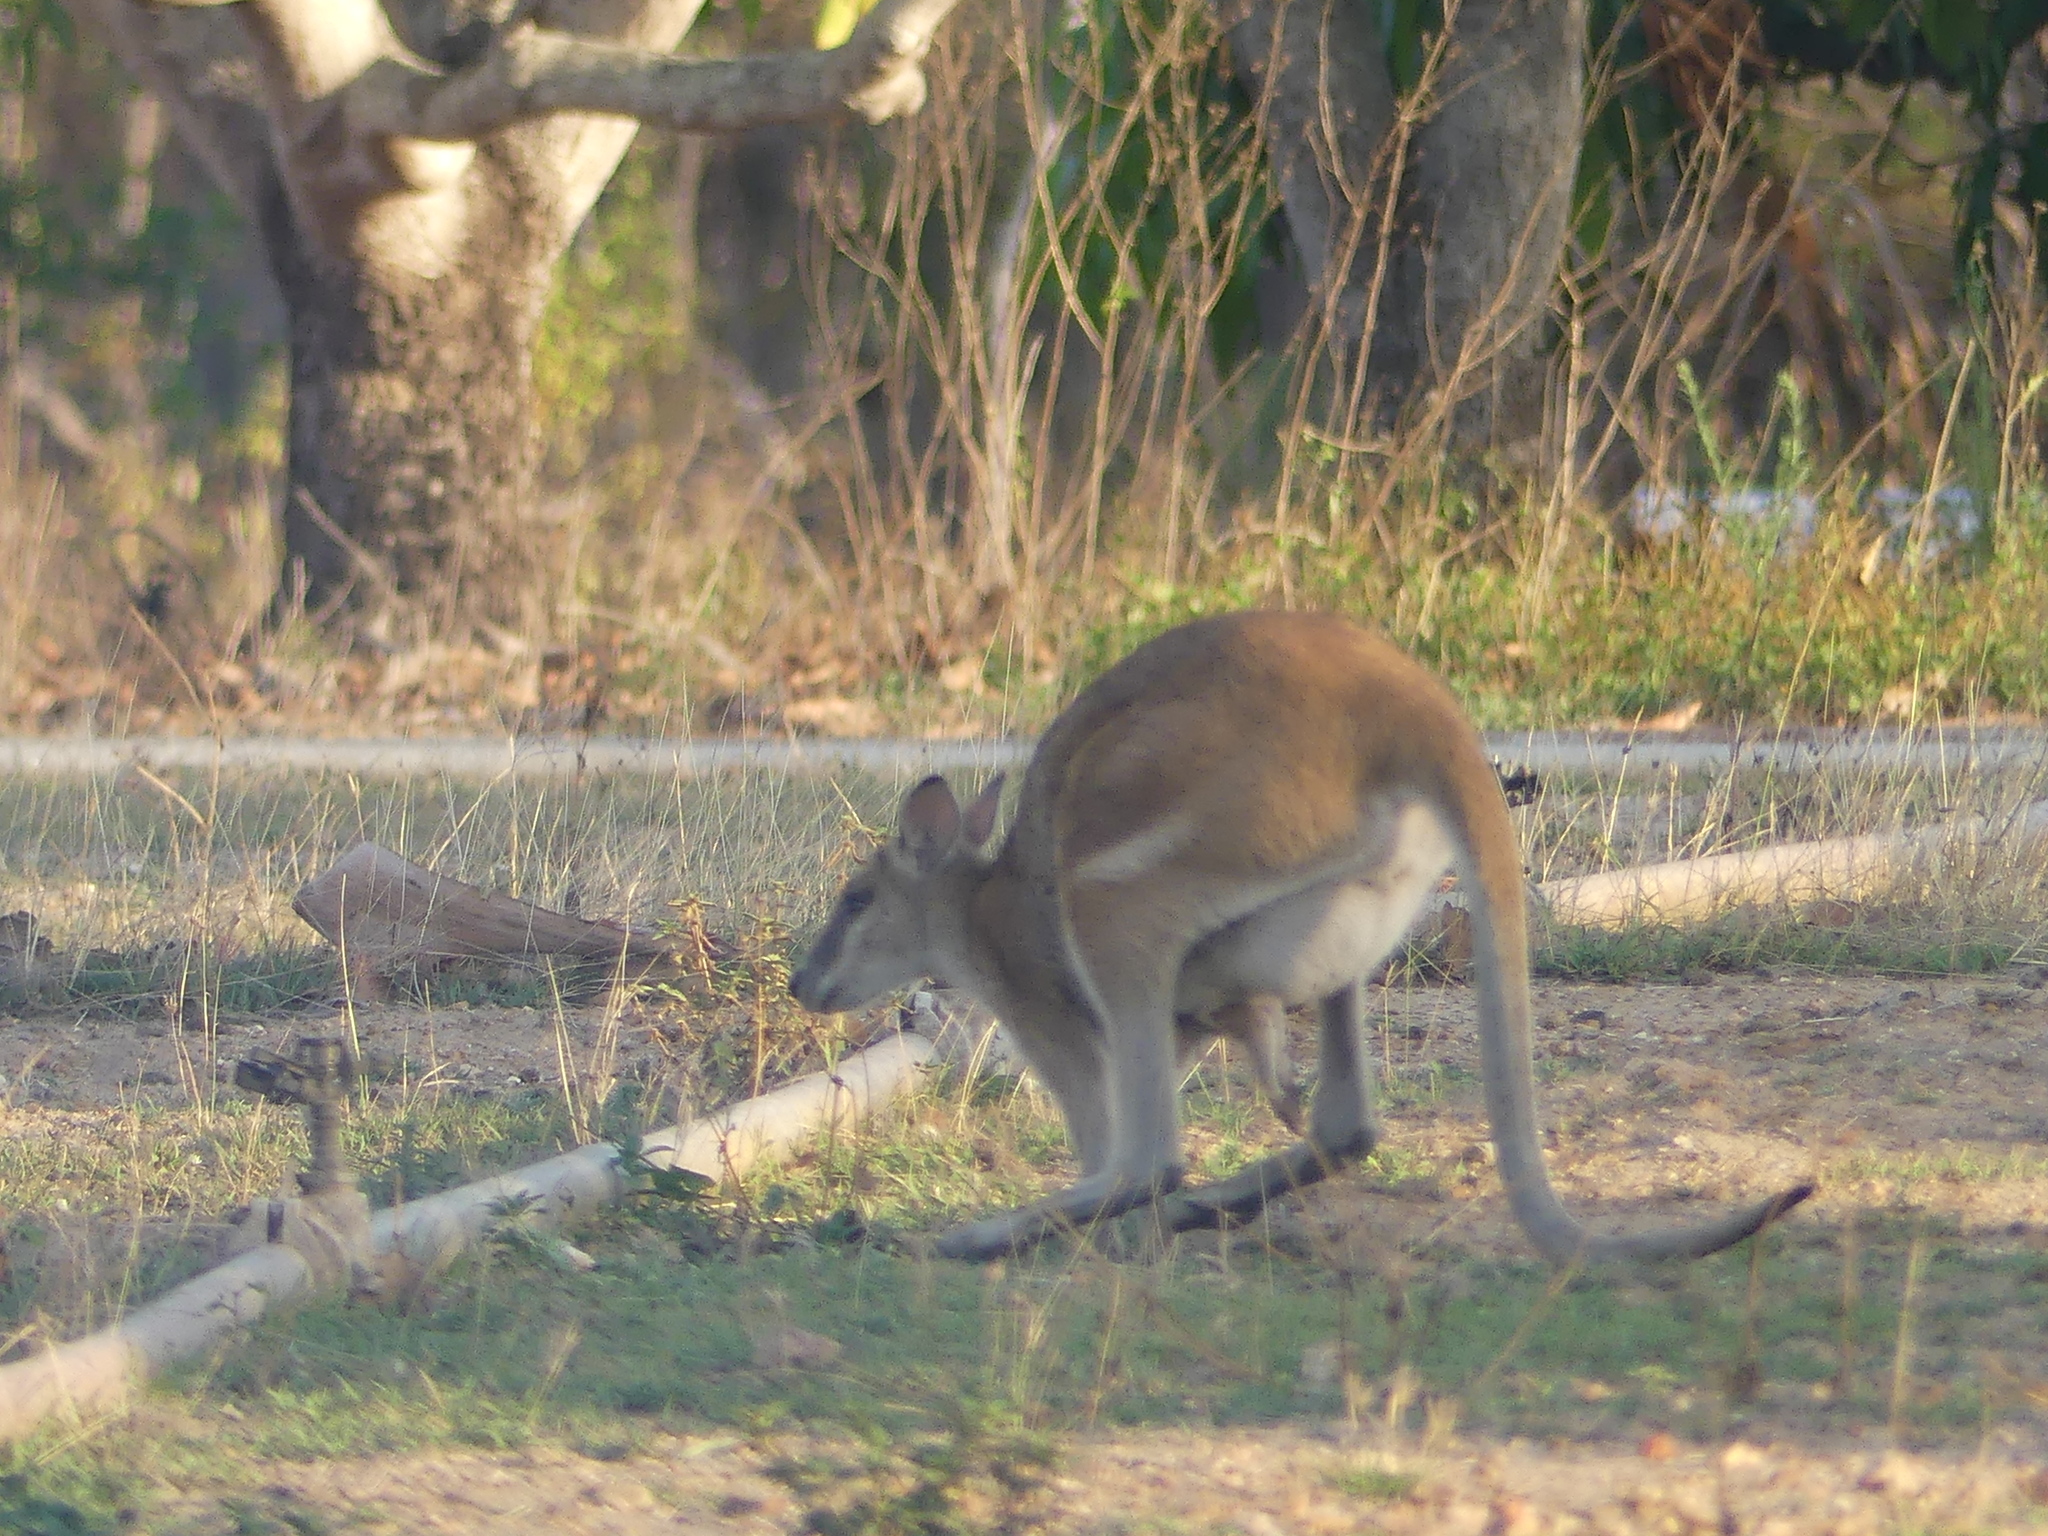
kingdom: Animalia
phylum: Chordata
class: Mammalia
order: Diprotodontia
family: Macropodidae
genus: Macropus
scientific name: Macropus agilis
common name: Agile wallaby
